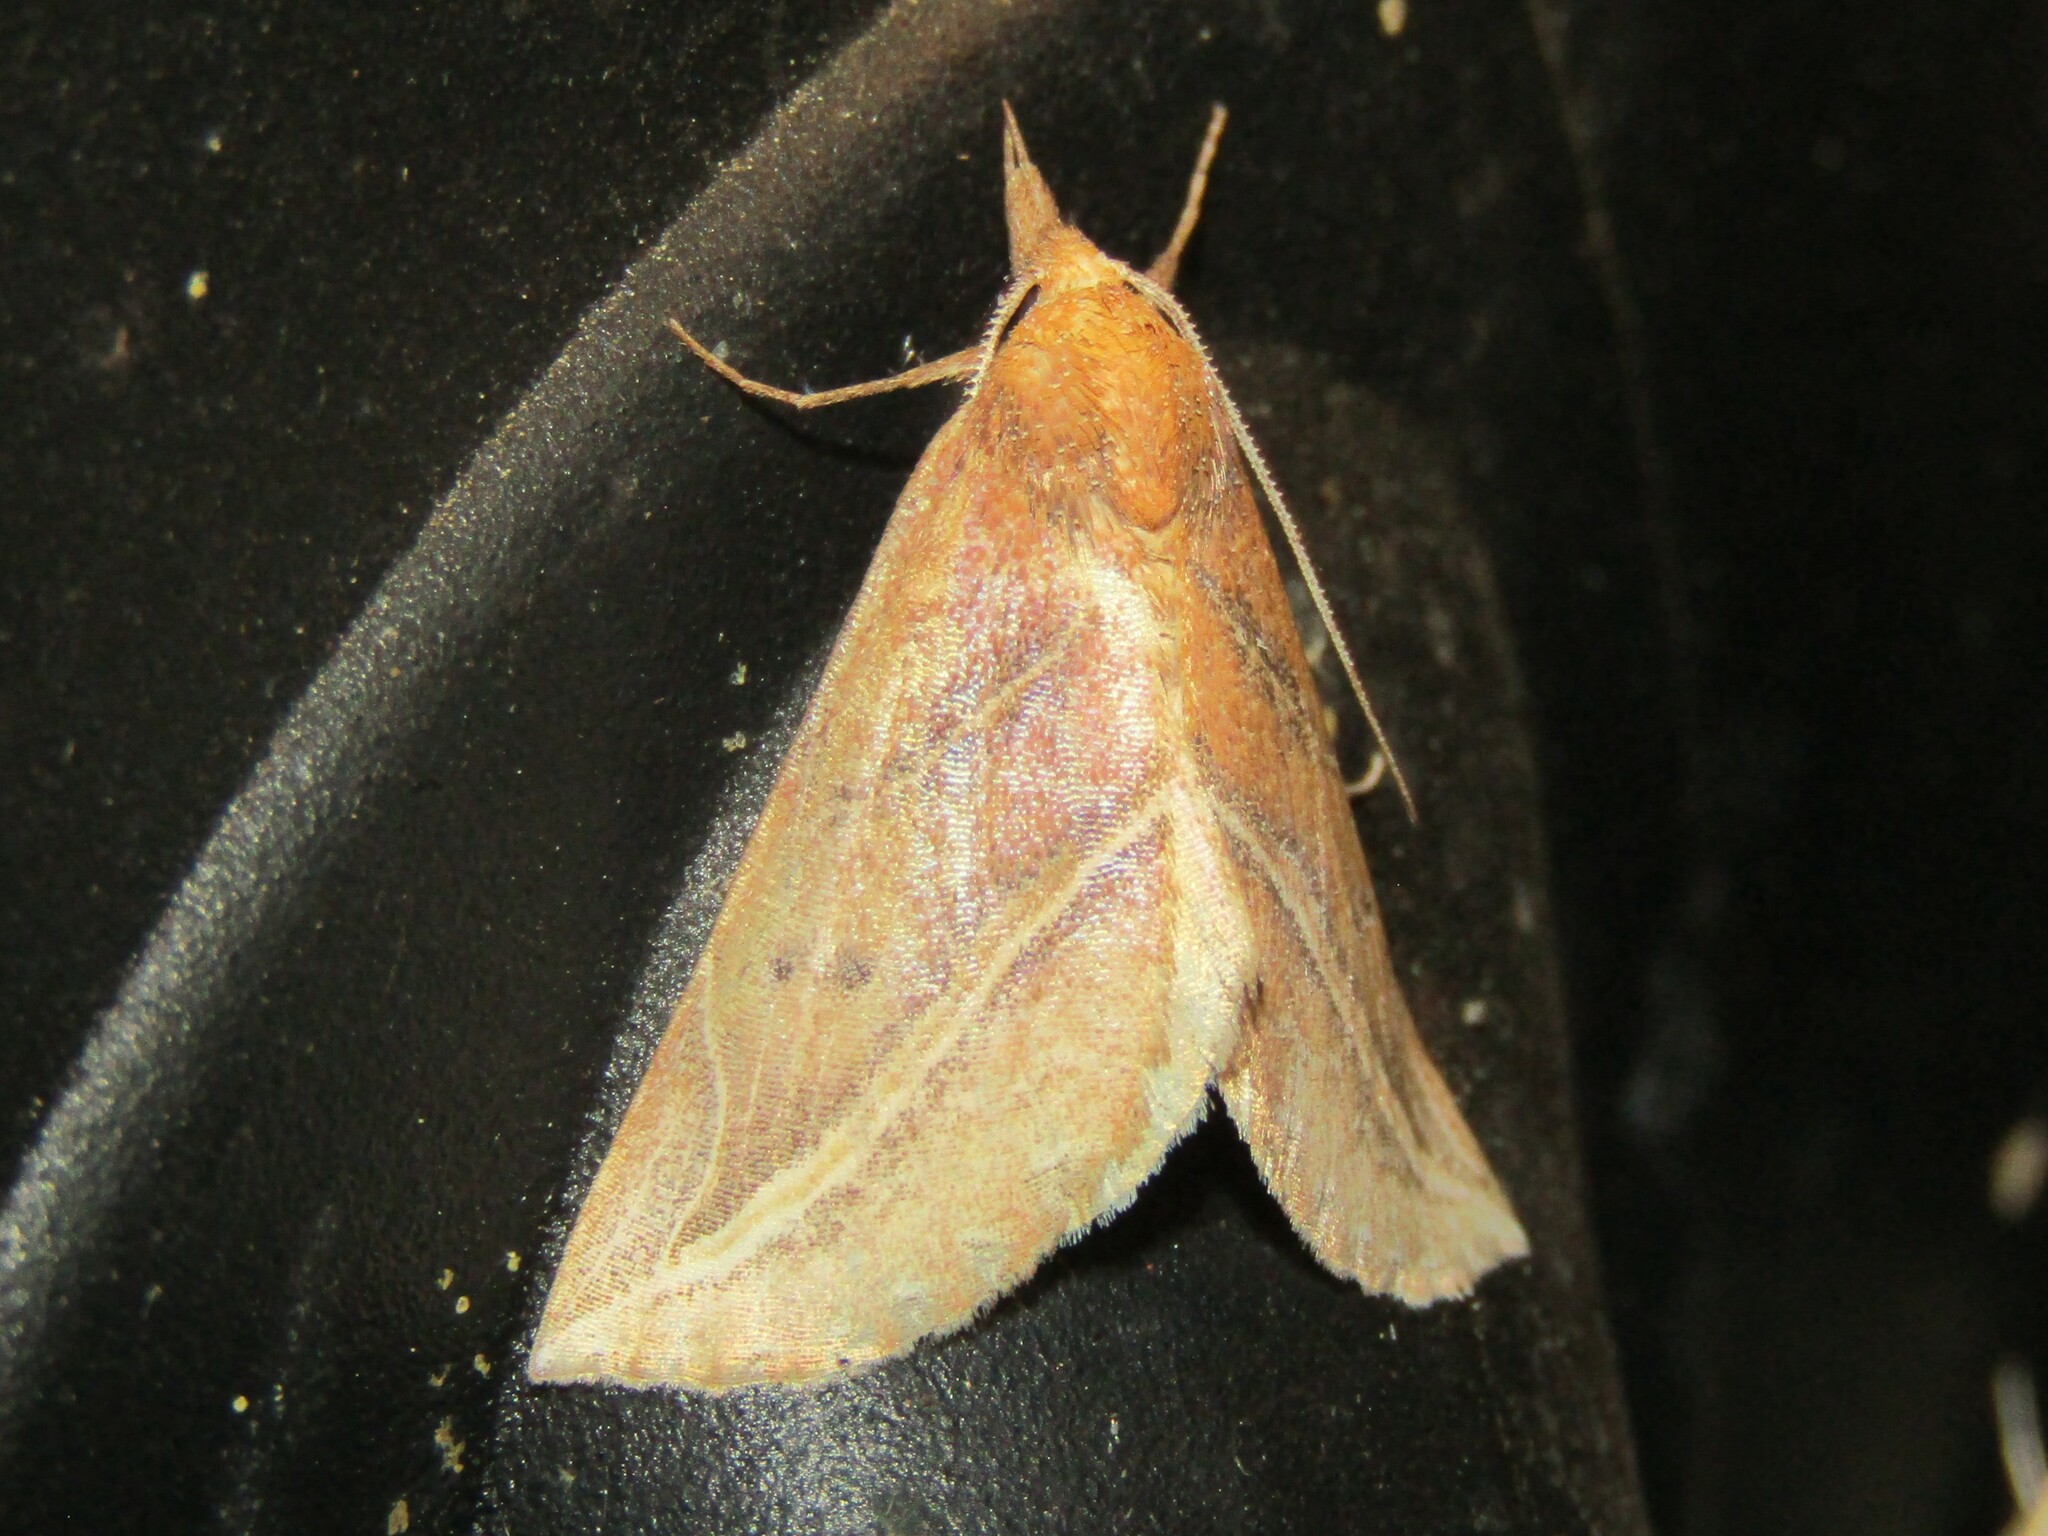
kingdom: Animalia
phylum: Arthropoda
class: Insecta
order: Lepidoptera
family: Erebidae
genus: Phyprosopus
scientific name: Phyprosopus callitrichoides
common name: Curved-lined owlet
